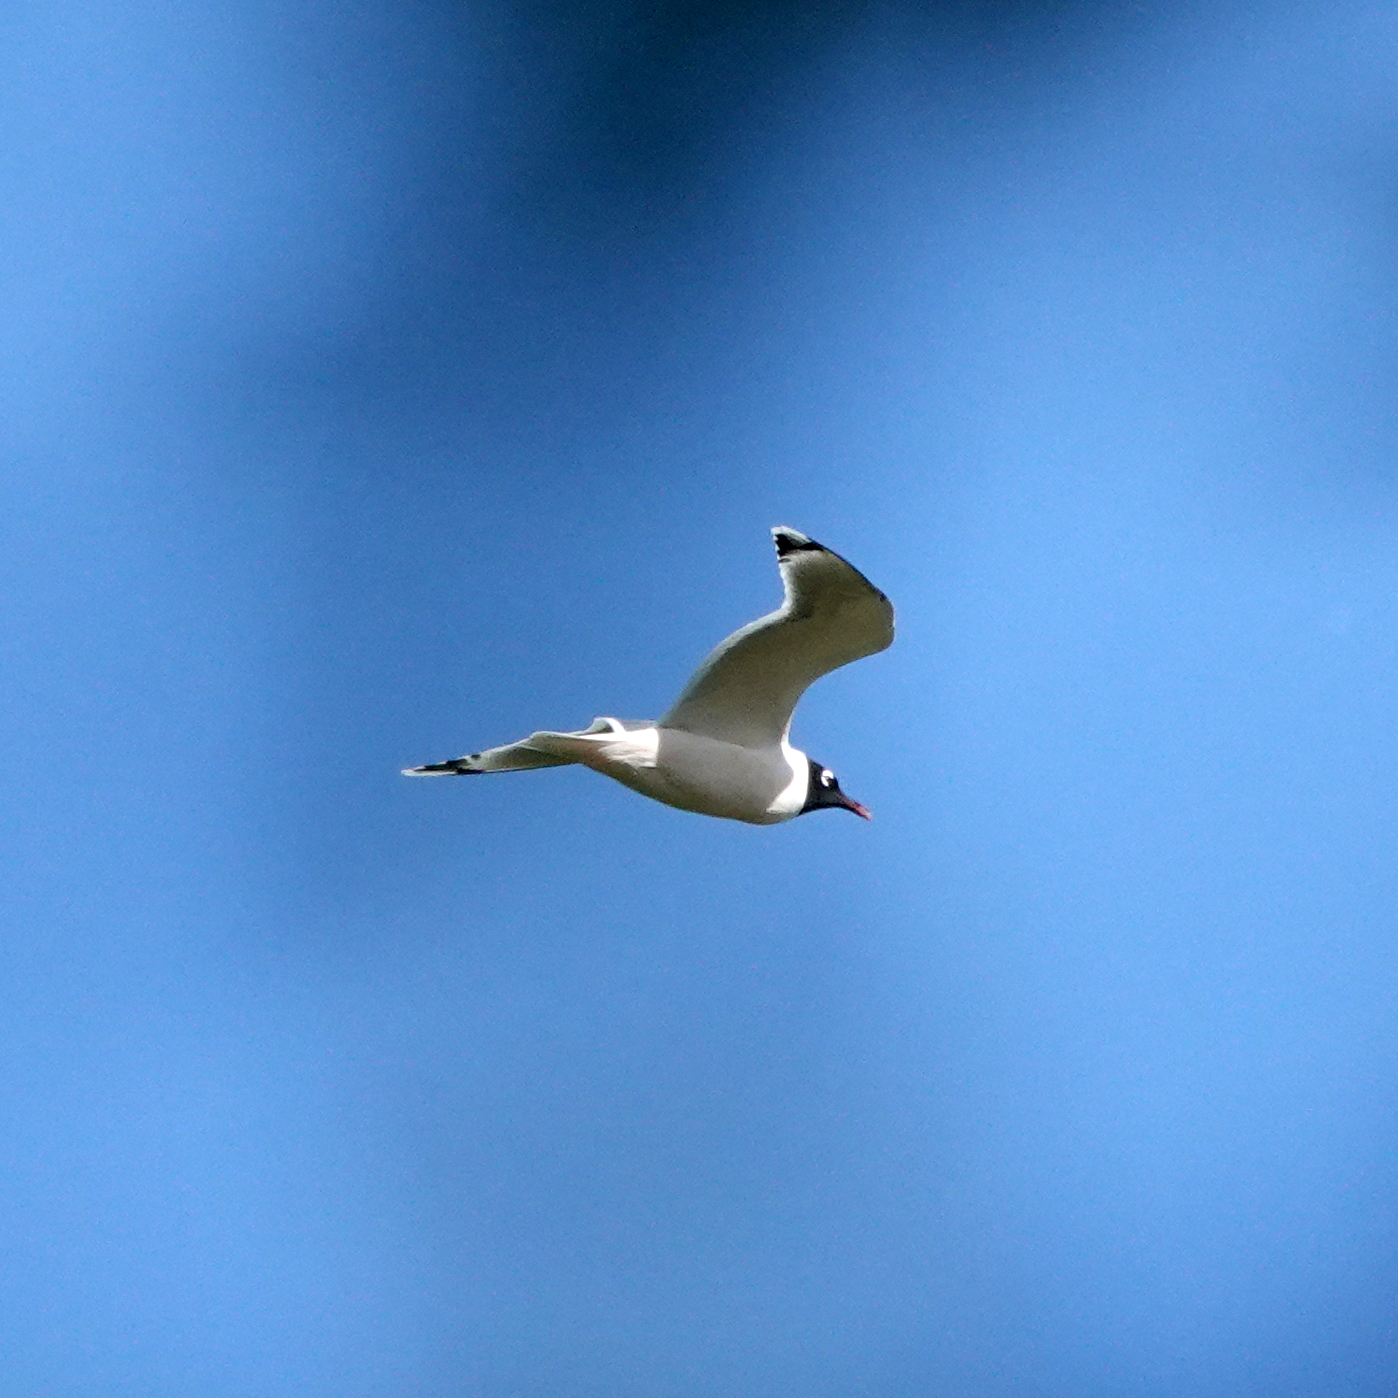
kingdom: Animalia
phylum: Chordata
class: Aves
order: Charadriiformes
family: Laridae
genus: Leucophaeus
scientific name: Leucophaeus pipixcan
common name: Franklin's gull
